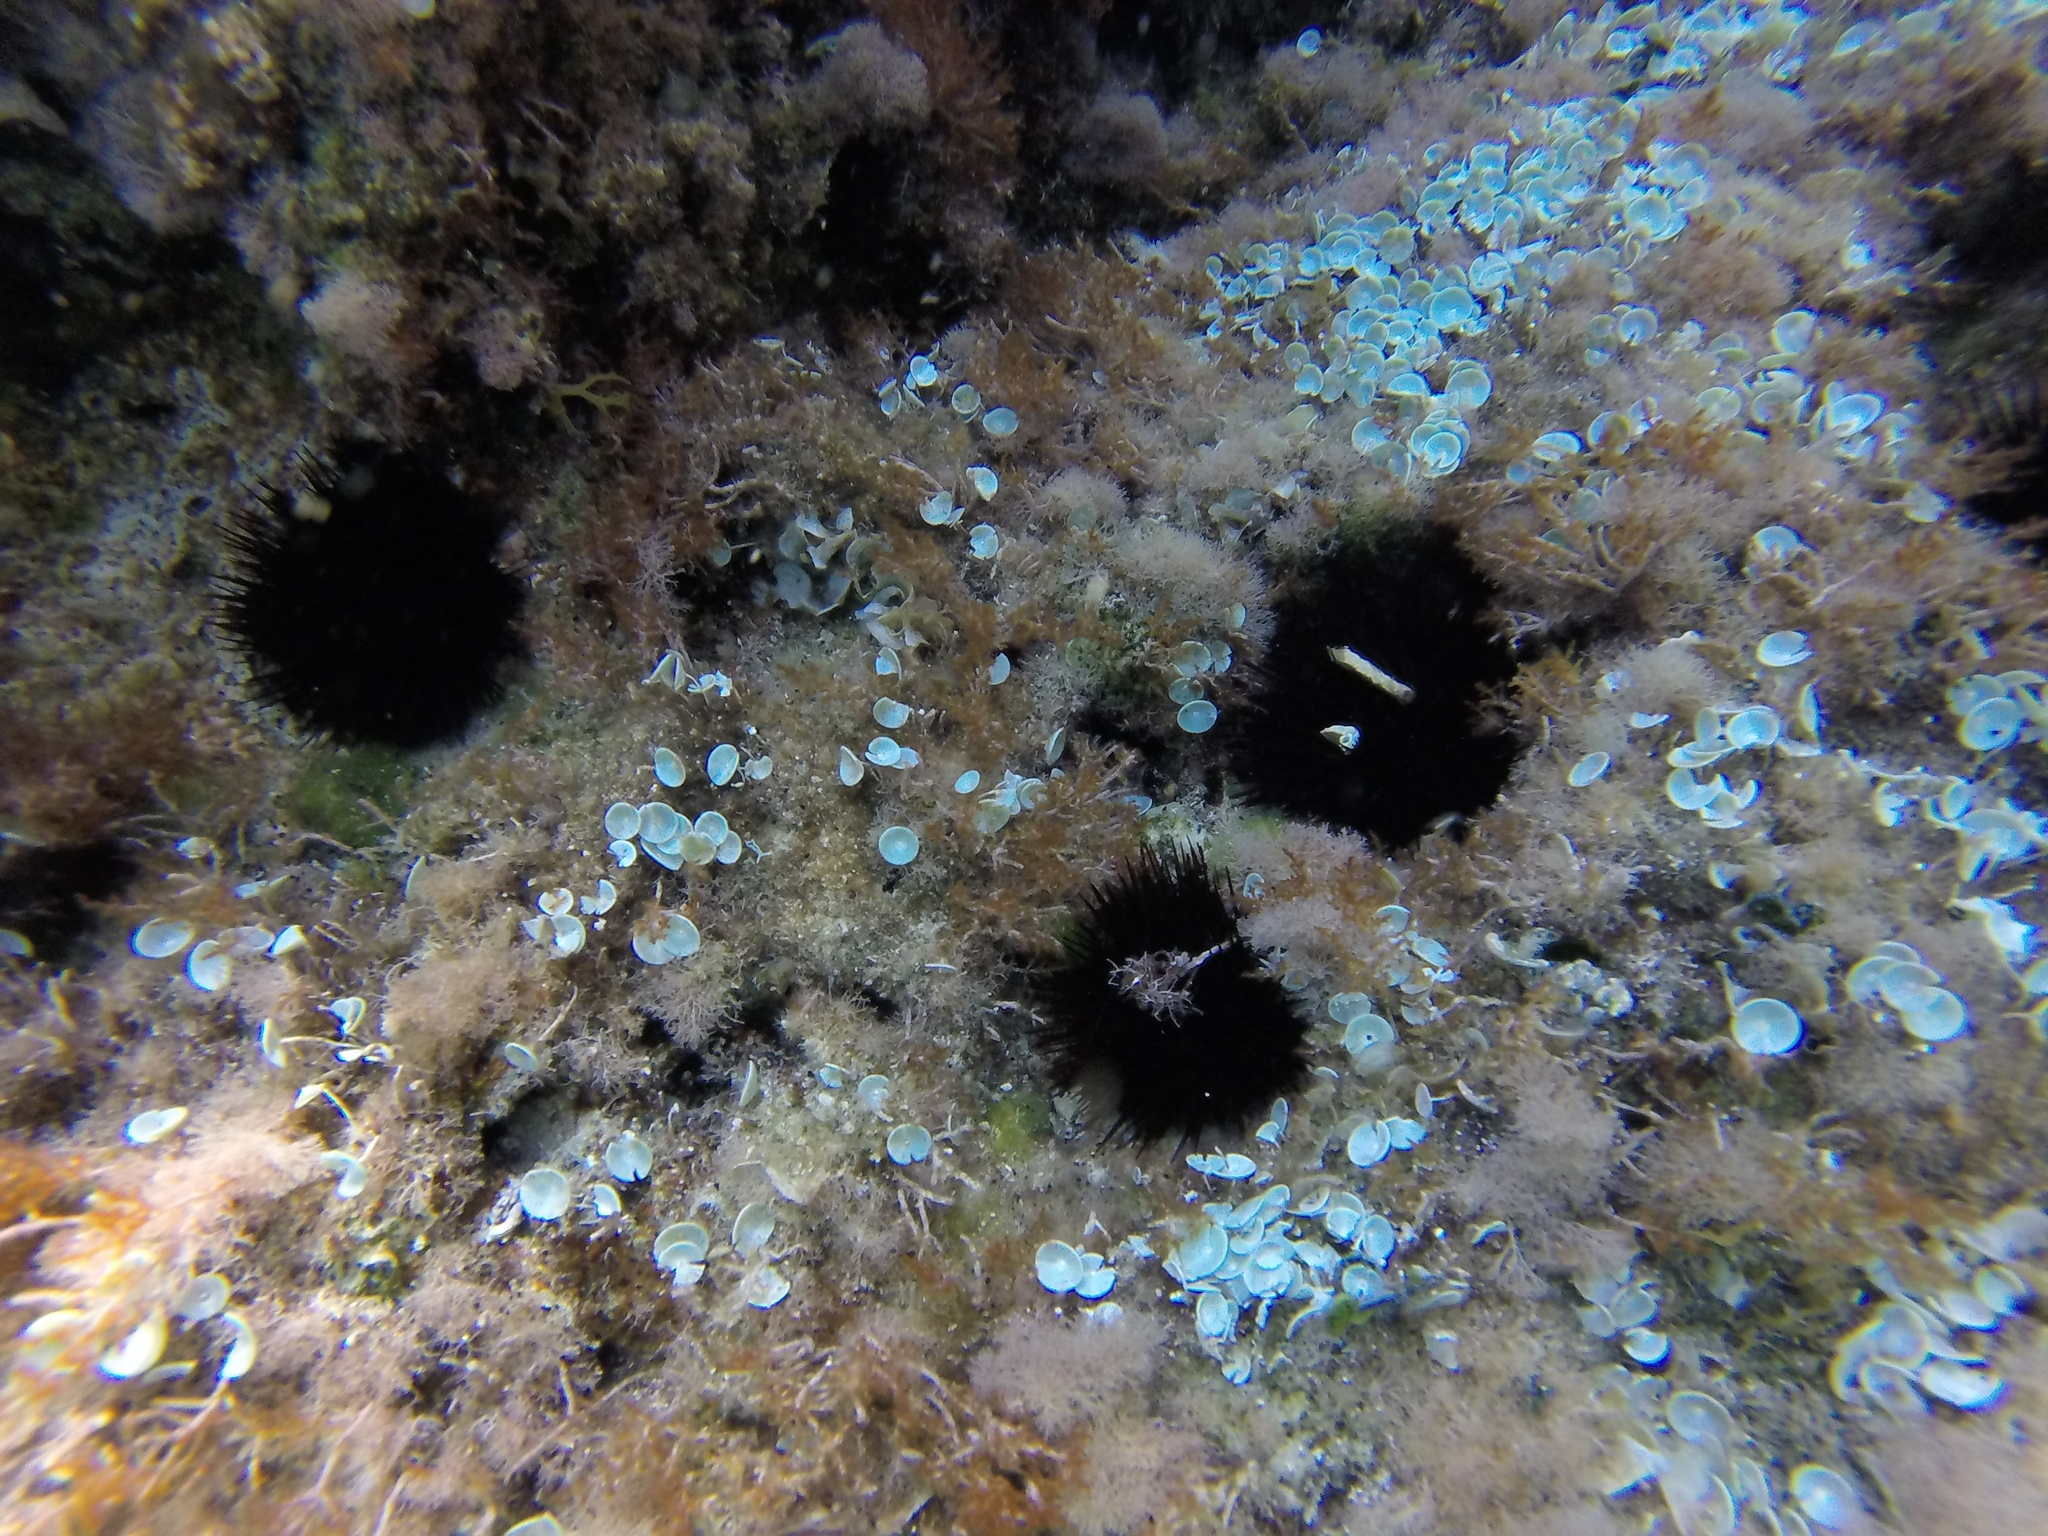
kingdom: Animalia
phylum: Echinodermata
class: Echinoidea
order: Arbacioida
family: Arbaciidae
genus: Arbacia
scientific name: Arbacia lixula
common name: Black sea urchin
